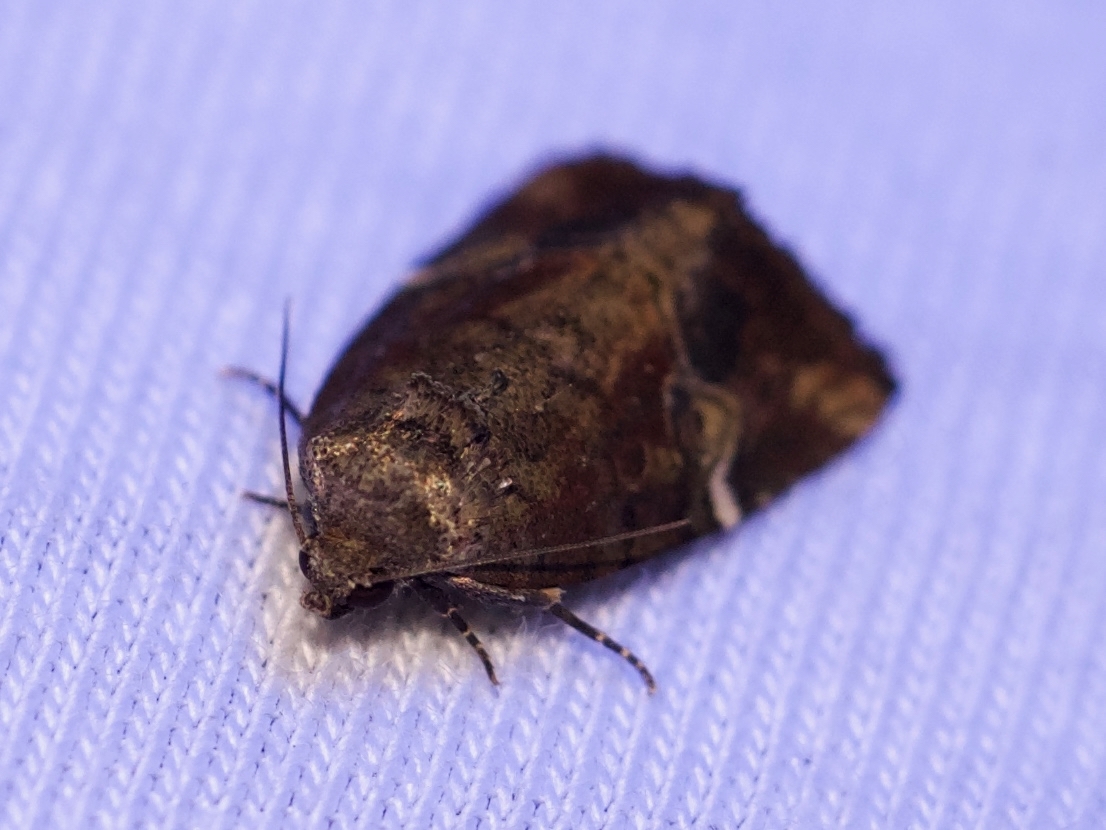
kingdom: Animalia
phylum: Arthropoda
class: Insecta
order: Lepidoptera
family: Noctuidae
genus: Elaphria
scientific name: Elaphria versicolor
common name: Fir harlequin
